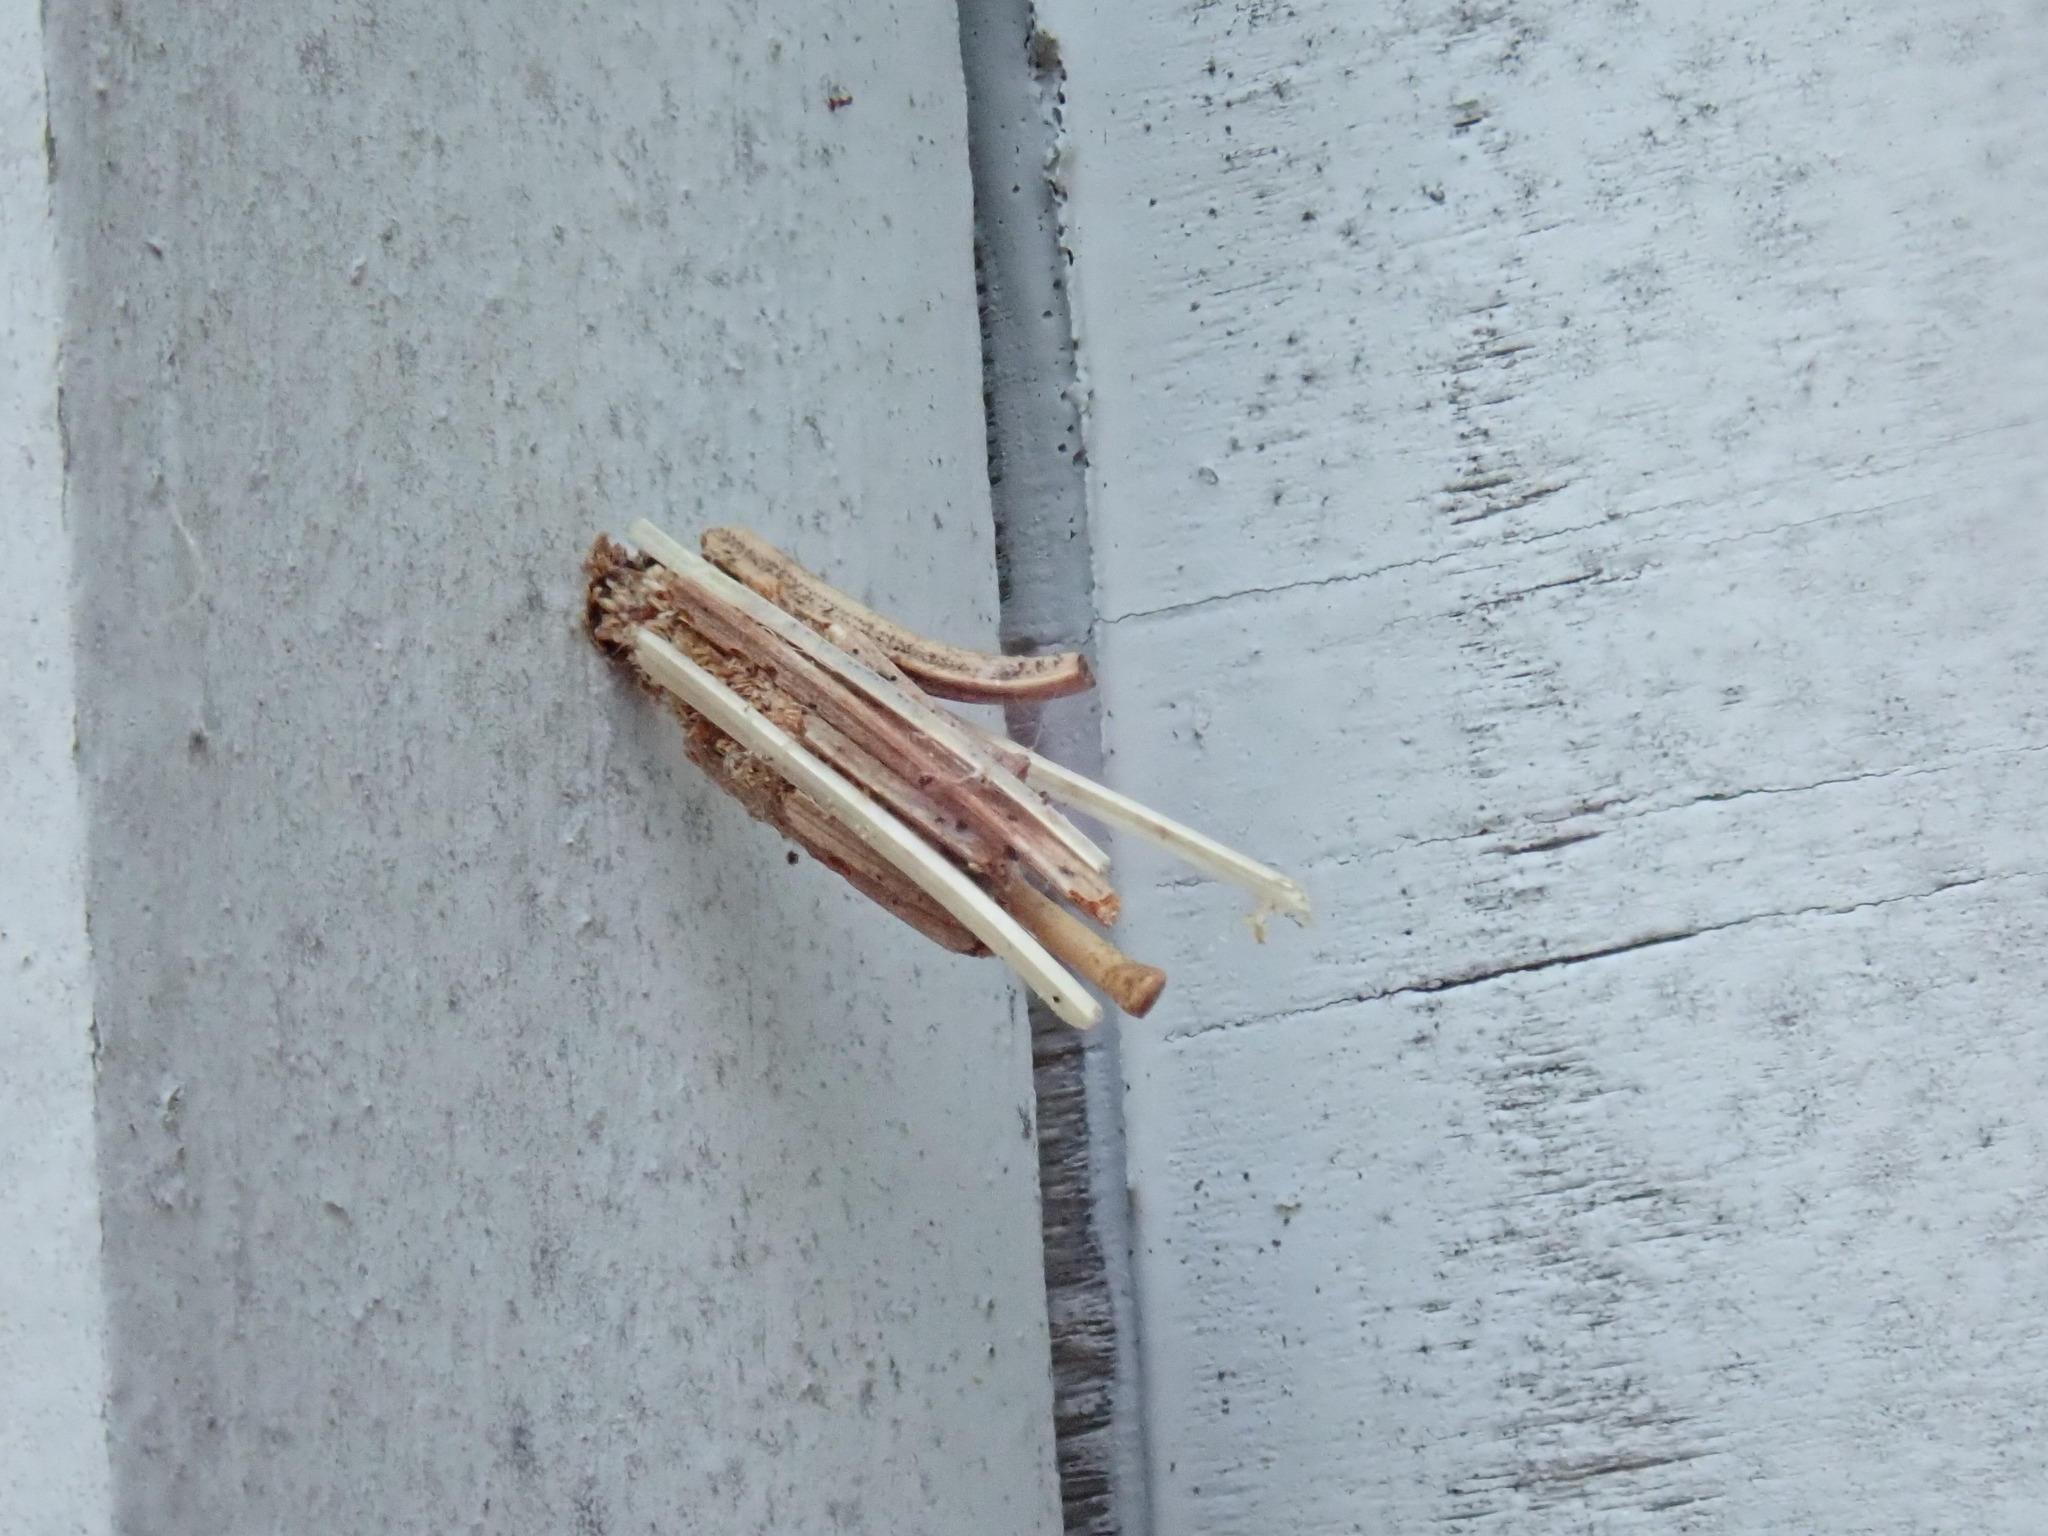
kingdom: Animalia
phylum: Arthropoda
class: Insecta
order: Lepidoptera
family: Psychidae
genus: Psyche
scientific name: Psyche casta
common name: Common sweep
